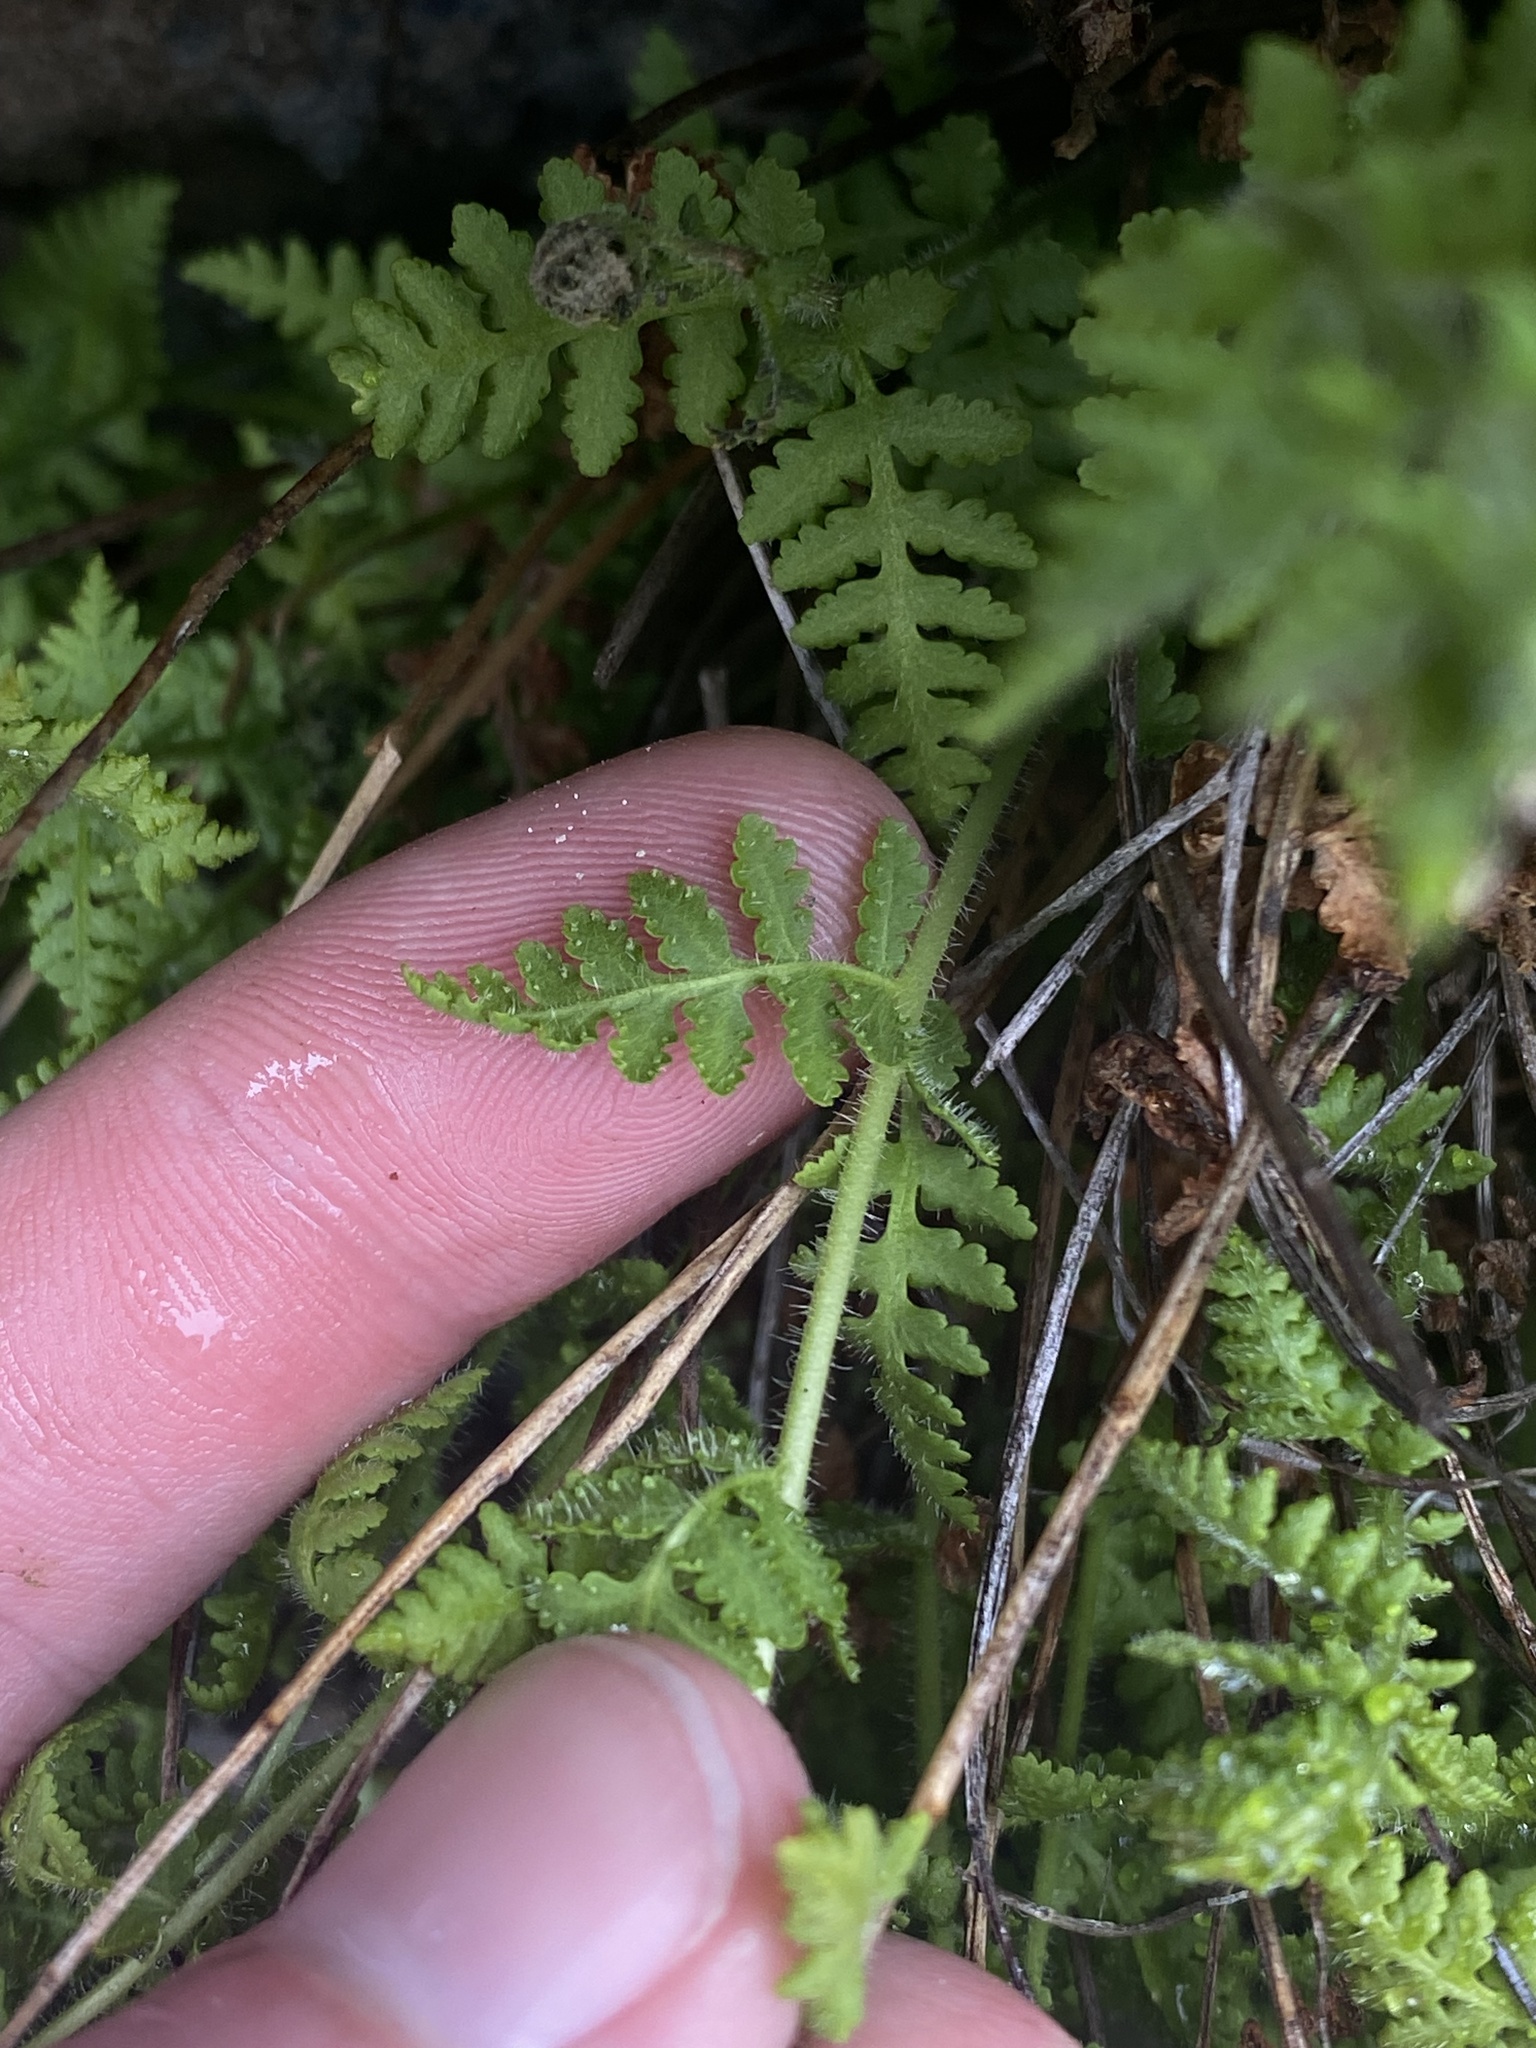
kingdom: Plantae
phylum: Tracheophyta
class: Polypodiopsida
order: Polypodiales
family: Woodsiaceae
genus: Physematium
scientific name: Physematium scopulinum
